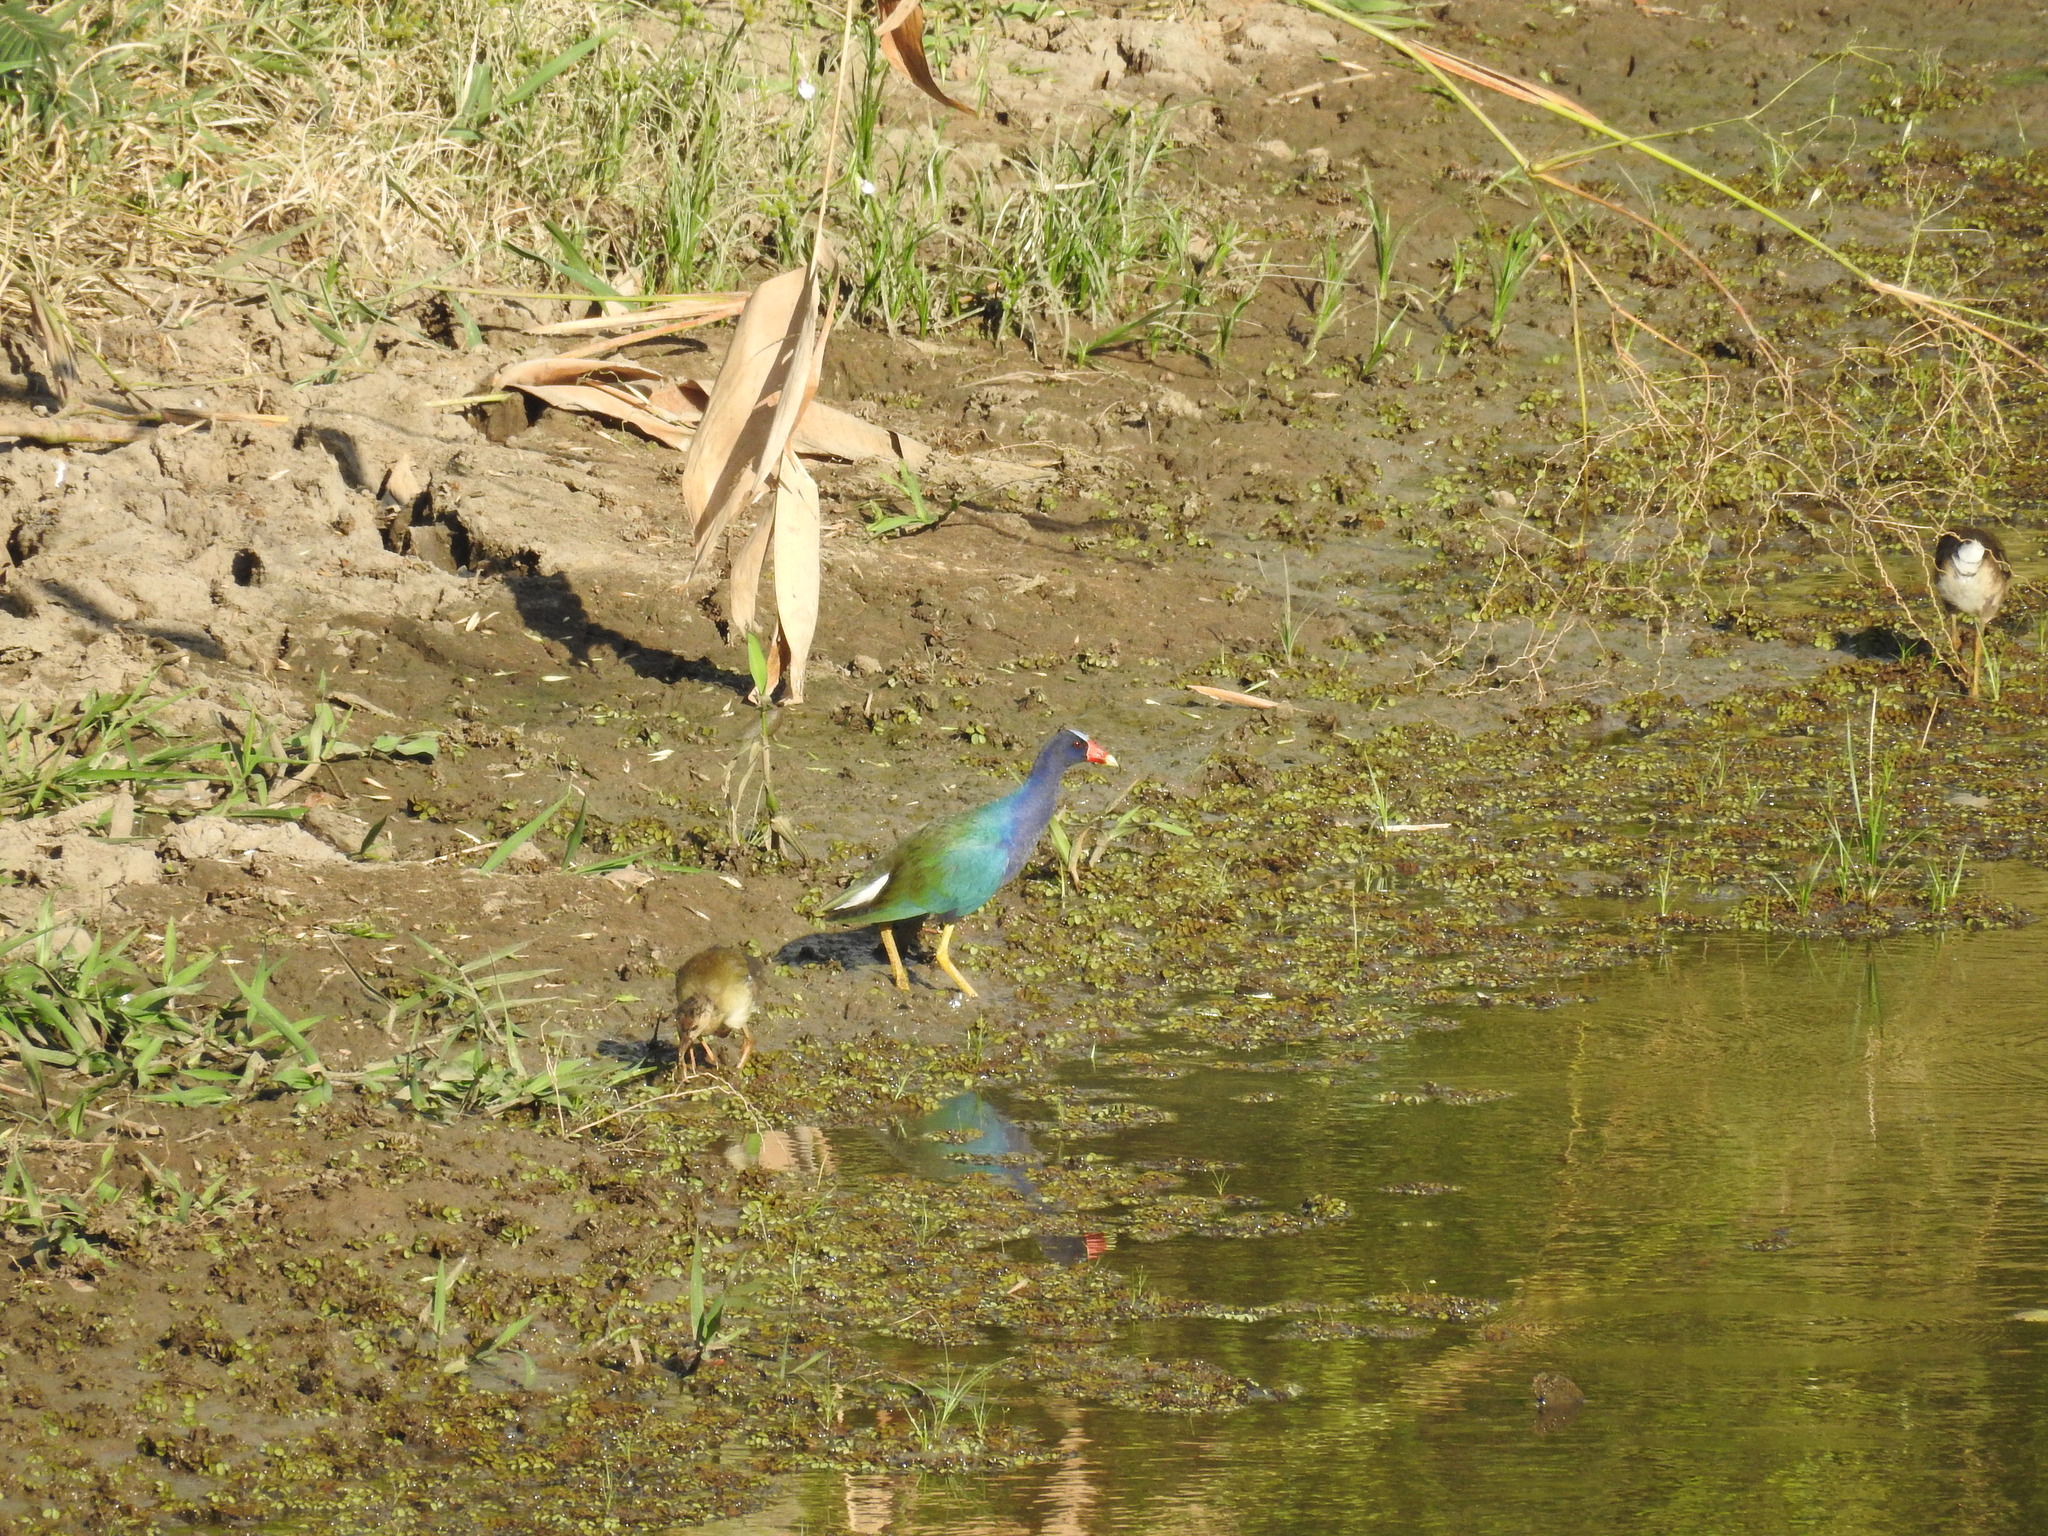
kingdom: Animalia
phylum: Chordata
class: Aves
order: Gruiformes
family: Rallidae
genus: Porphyrio
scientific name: Porphyrio martinica
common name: Purple gallinule
